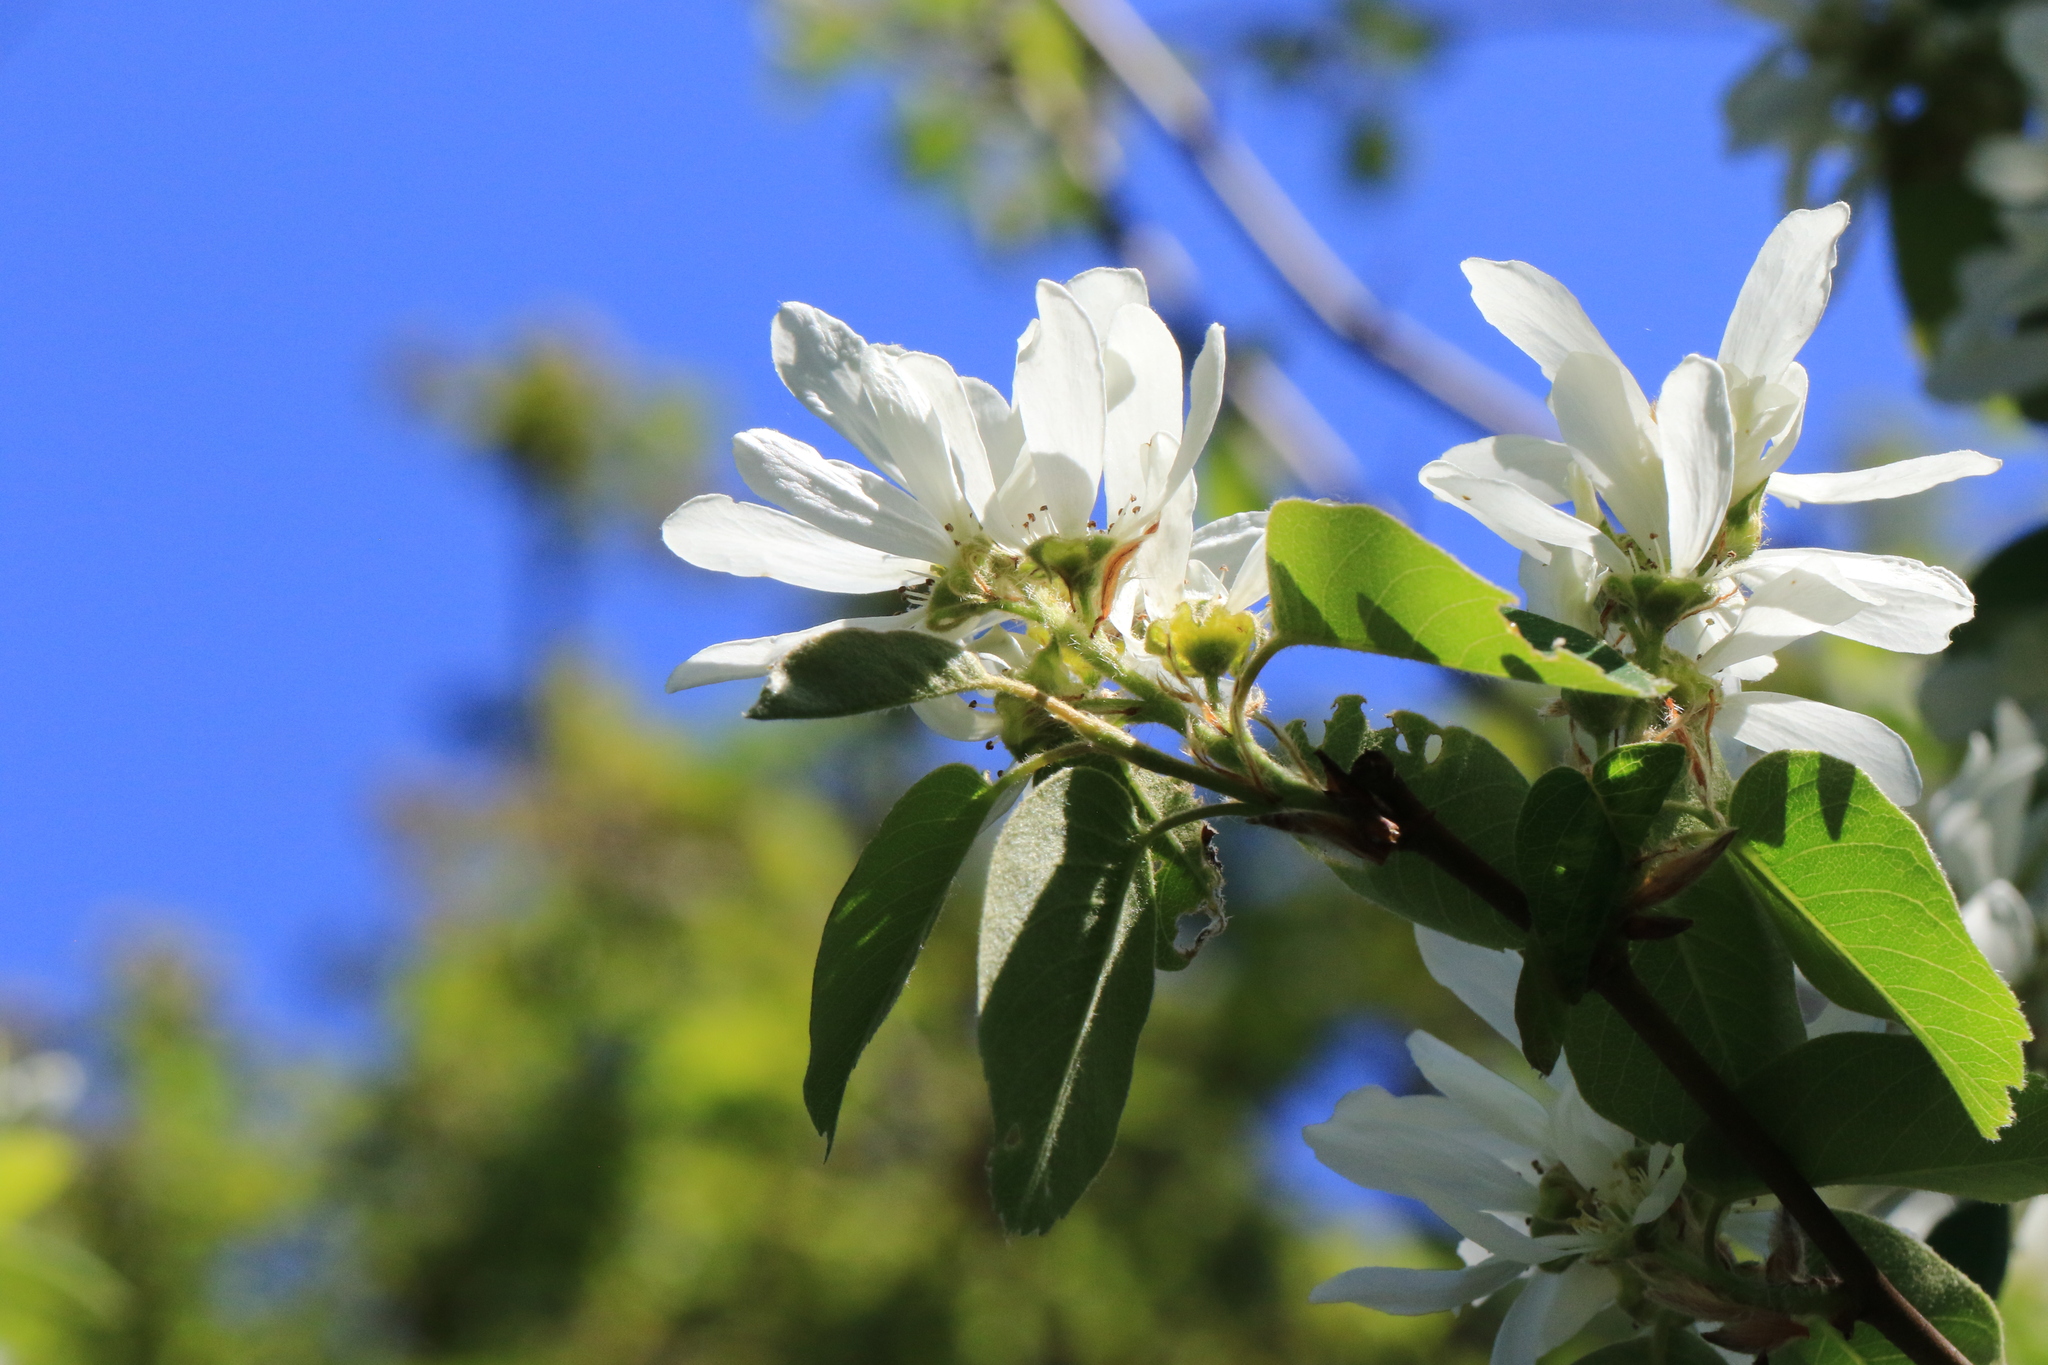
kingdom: Plantae
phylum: Tracheophyta
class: Magnoliopsida
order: Rosales
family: Rosaceae
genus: Amelanchier
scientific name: Amelanchier alnifolia
